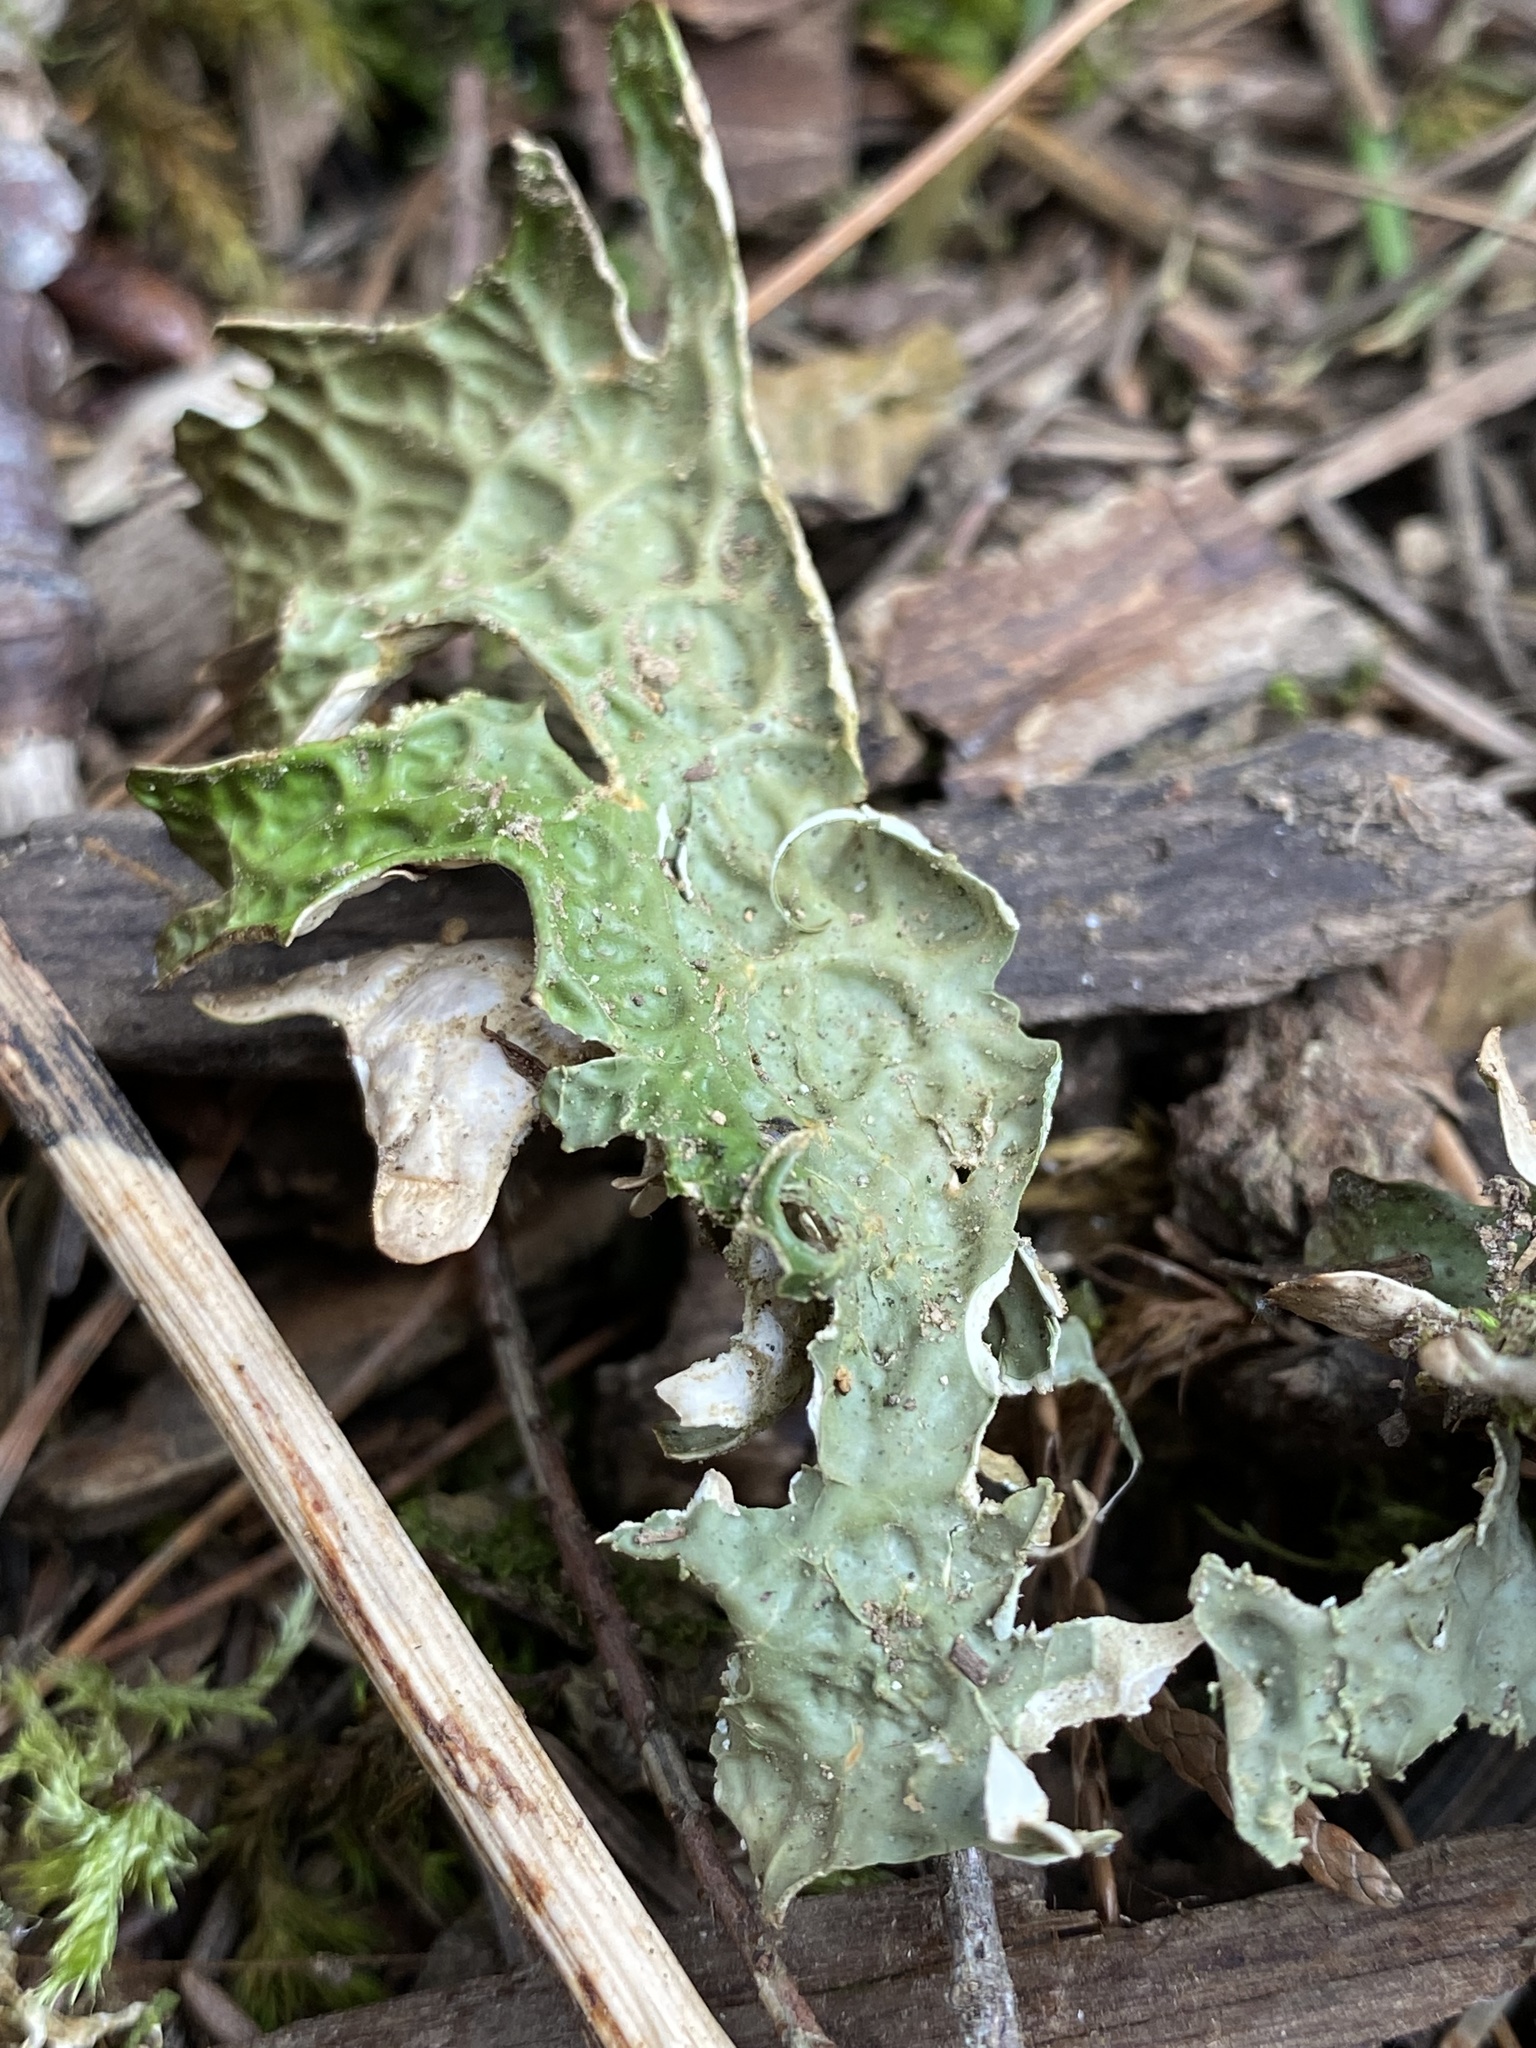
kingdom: Fungi
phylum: Ascomycota
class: Lecanoromycetes
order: Peltigerales
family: Lobariaceae
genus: Lobaria
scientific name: Lobaria pulmonaria
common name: Lungwort
